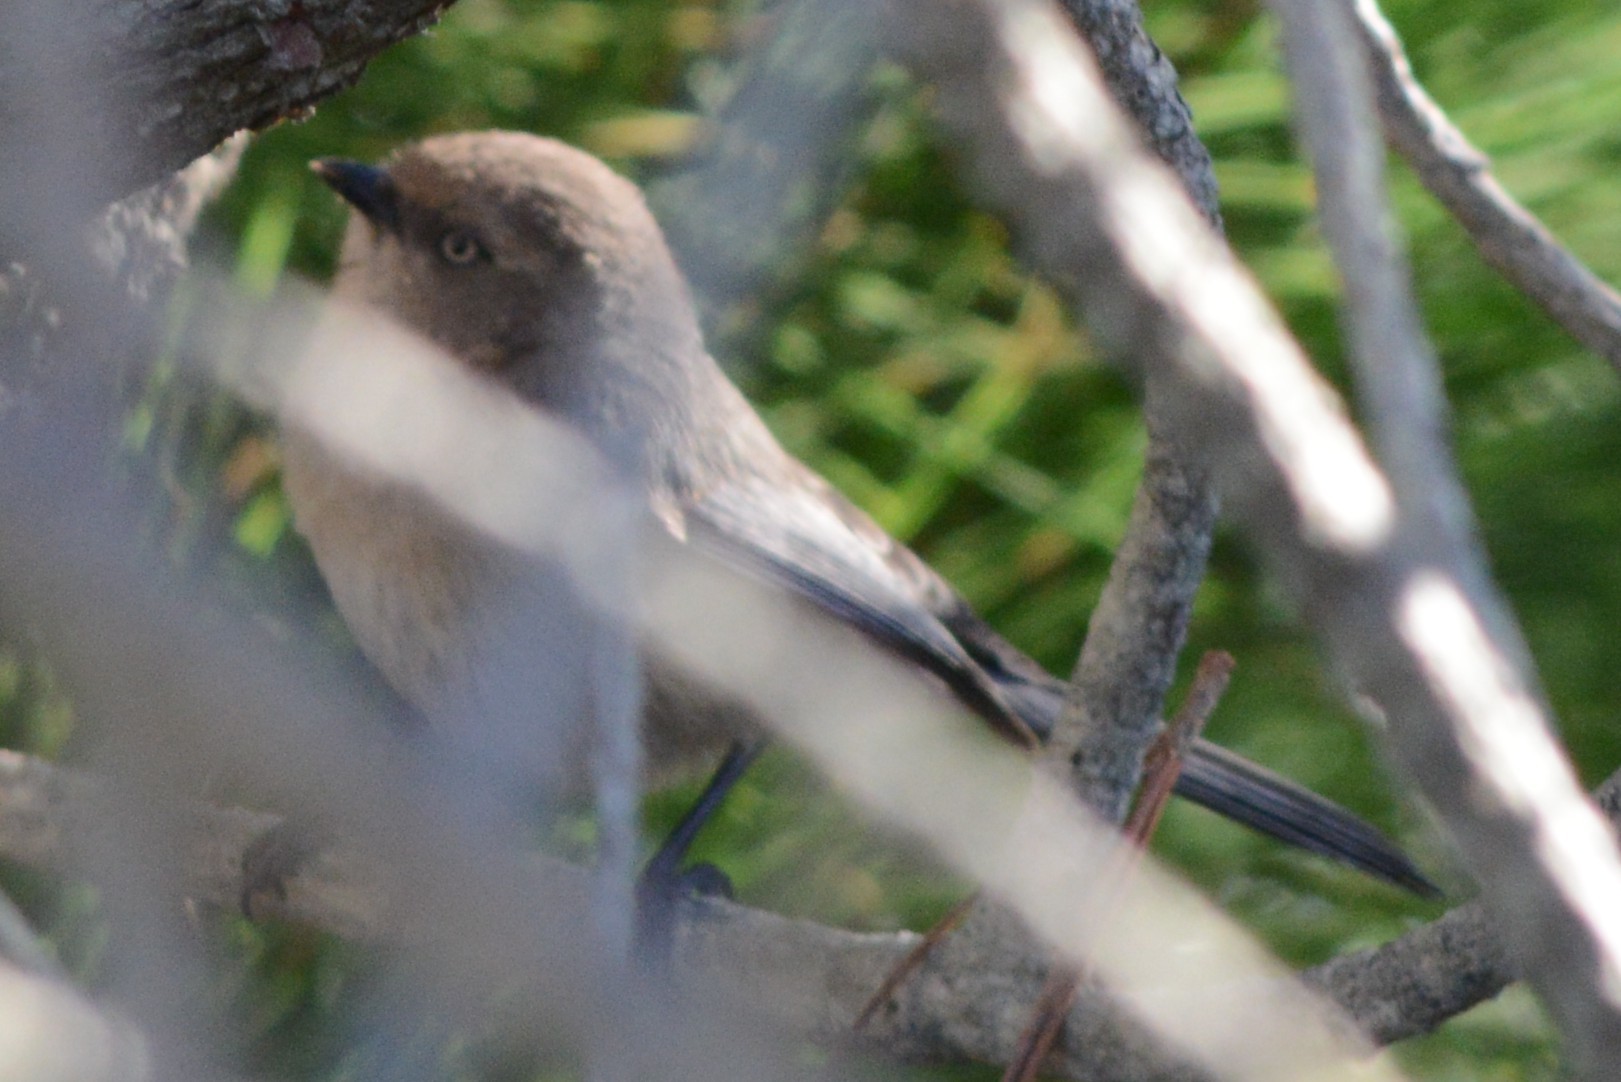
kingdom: Animalia
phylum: Chordata
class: Aves
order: Passeriformes
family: Aegithalidae
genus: Psaltriparus
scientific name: Psaltriparus minimus
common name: American bushtit
